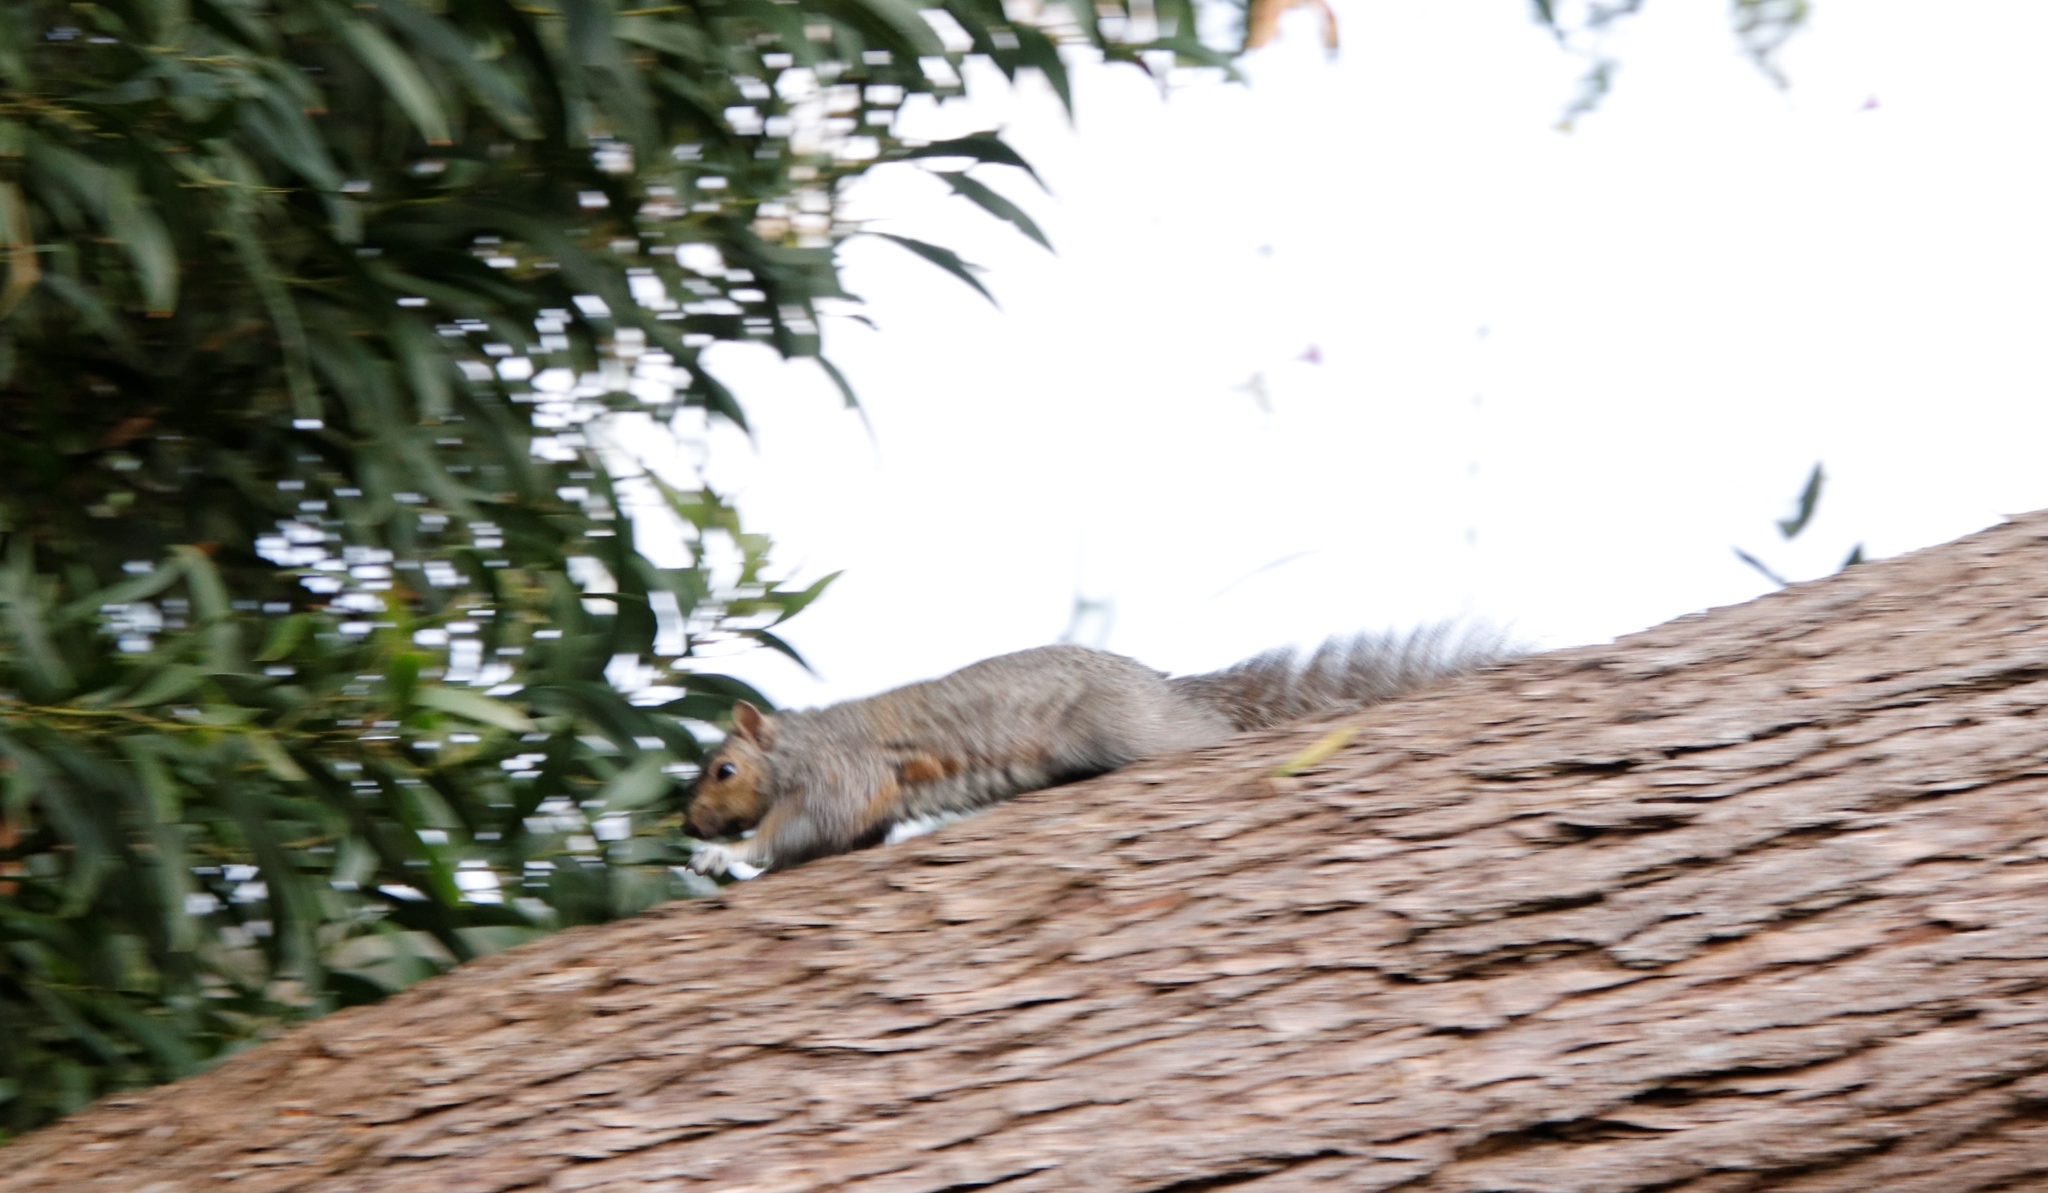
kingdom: Animalia
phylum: Chordata
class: Mammalia
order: Rodentia
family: Sciuridae
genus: Sciurus
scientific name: Sciurus carolinensis
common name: Eastern gray squirrel
